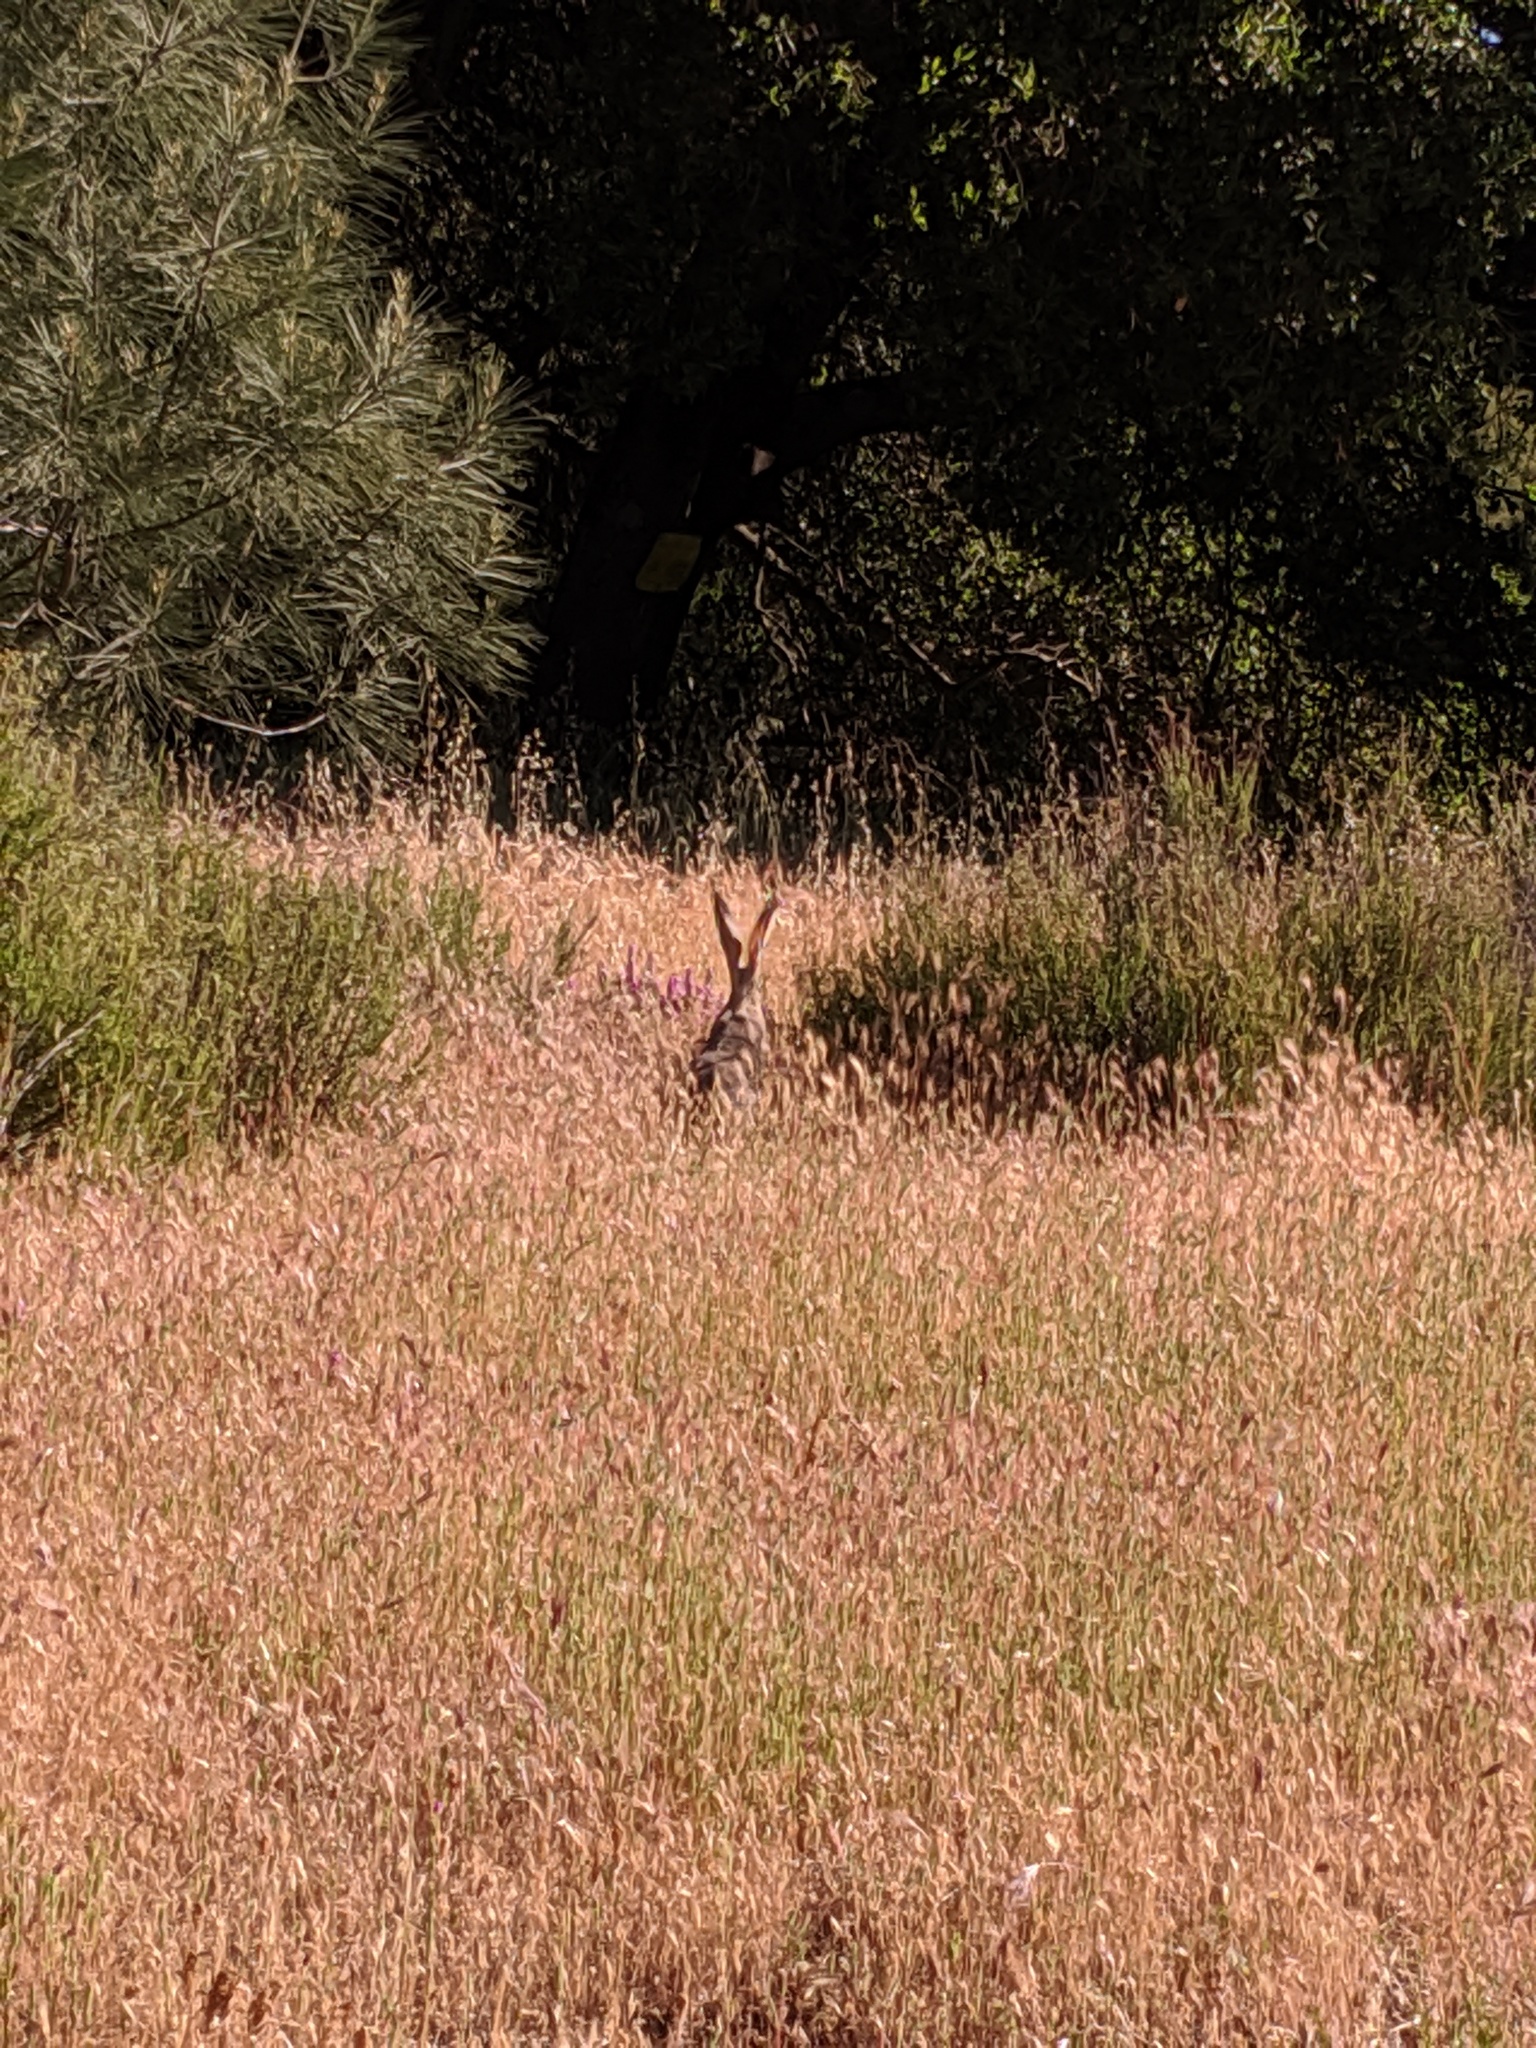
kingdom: Animalia
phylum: Chordata
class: Mammalia
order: Lagomorpha
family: Leporidae
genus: Lepus
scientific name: Lepus californicus
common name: Black-tailed jackrabbit
